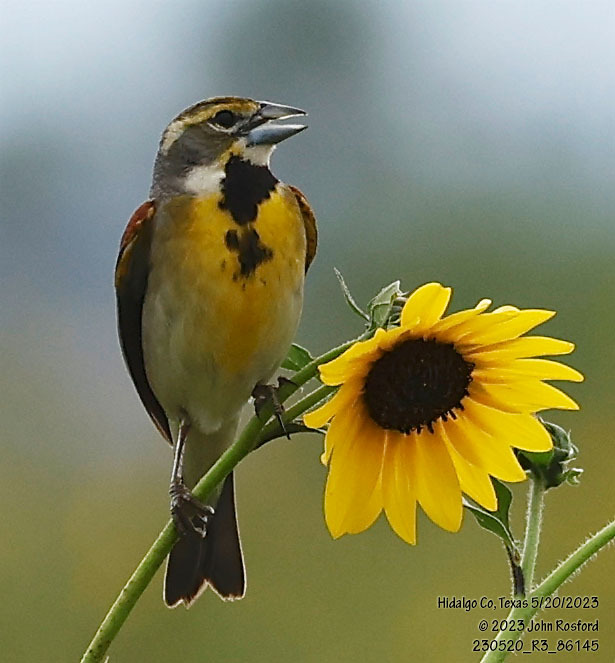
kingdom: Animalia
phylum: Chordata
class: Aves
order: Passeriformes
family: Cardinalidae
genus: Spiza
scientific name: Spiza americana
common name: Dickcissel
